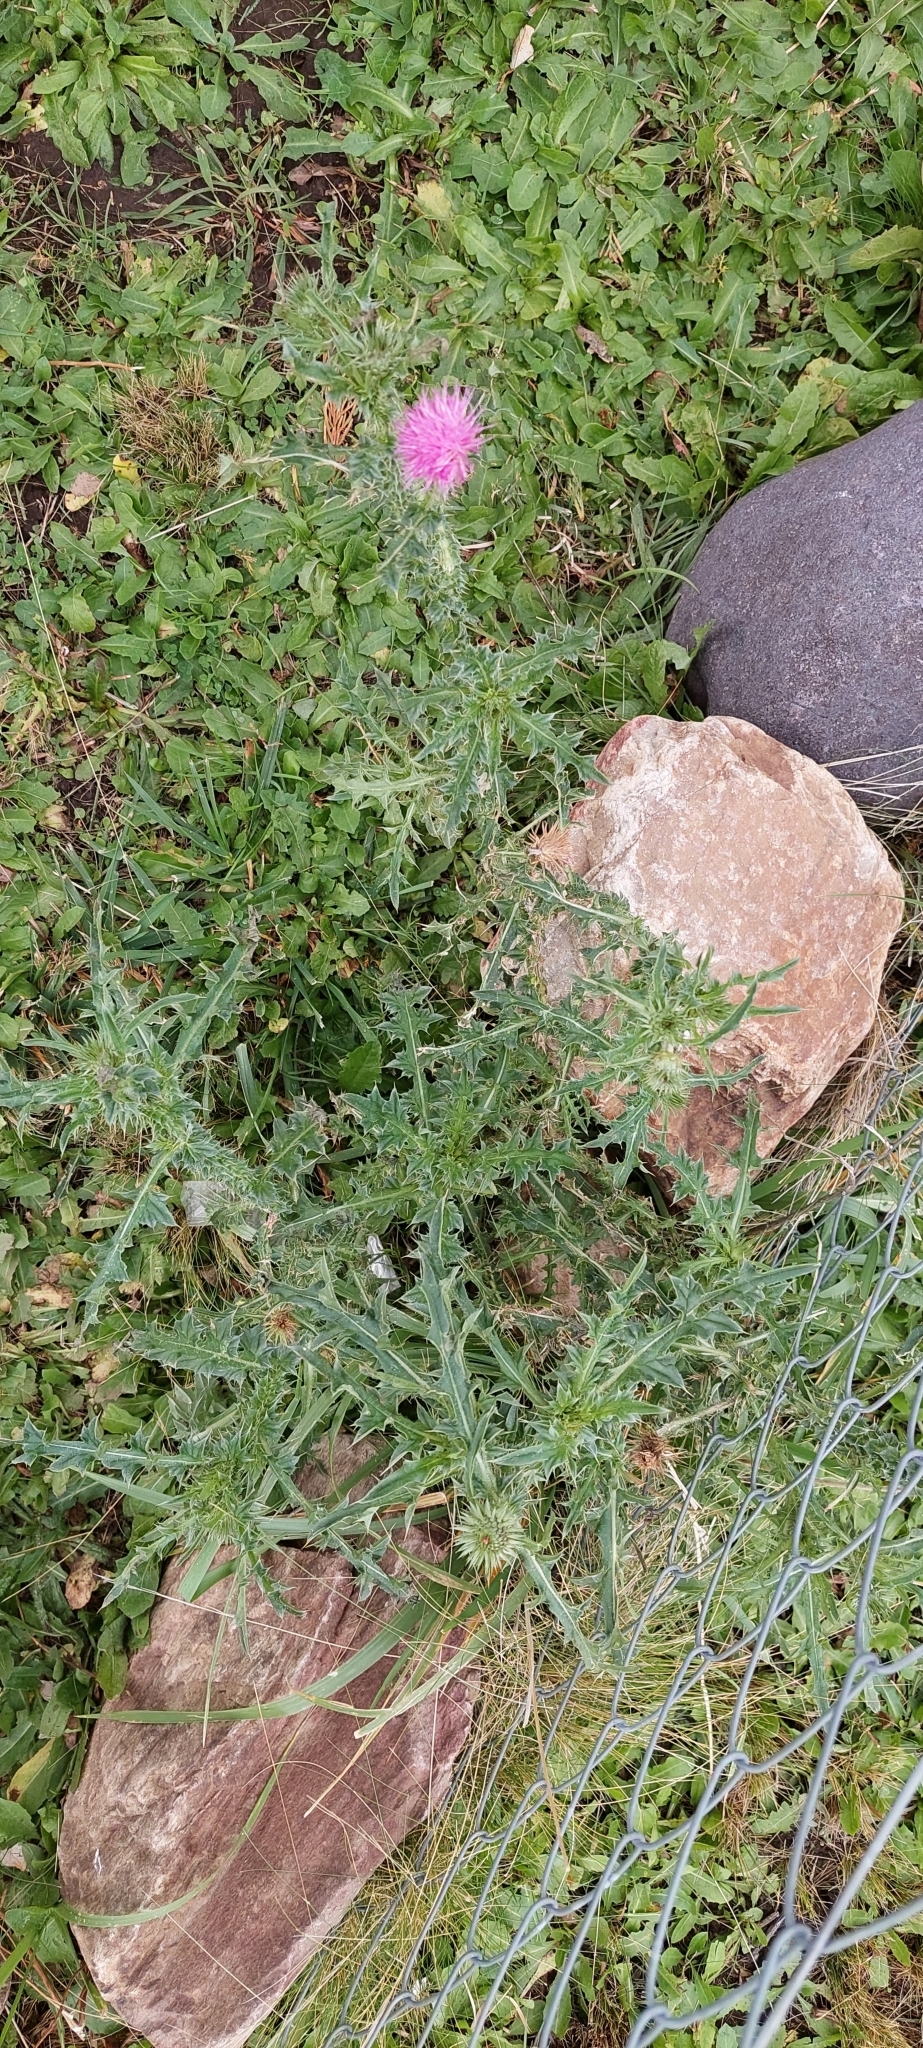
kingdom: Plantae
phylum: Tracheophyta
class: Magnoliopsida
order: Asterales
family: Asteraceae
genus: Carduus
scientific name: Carduus acanthoides
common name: Plumeless thistle
